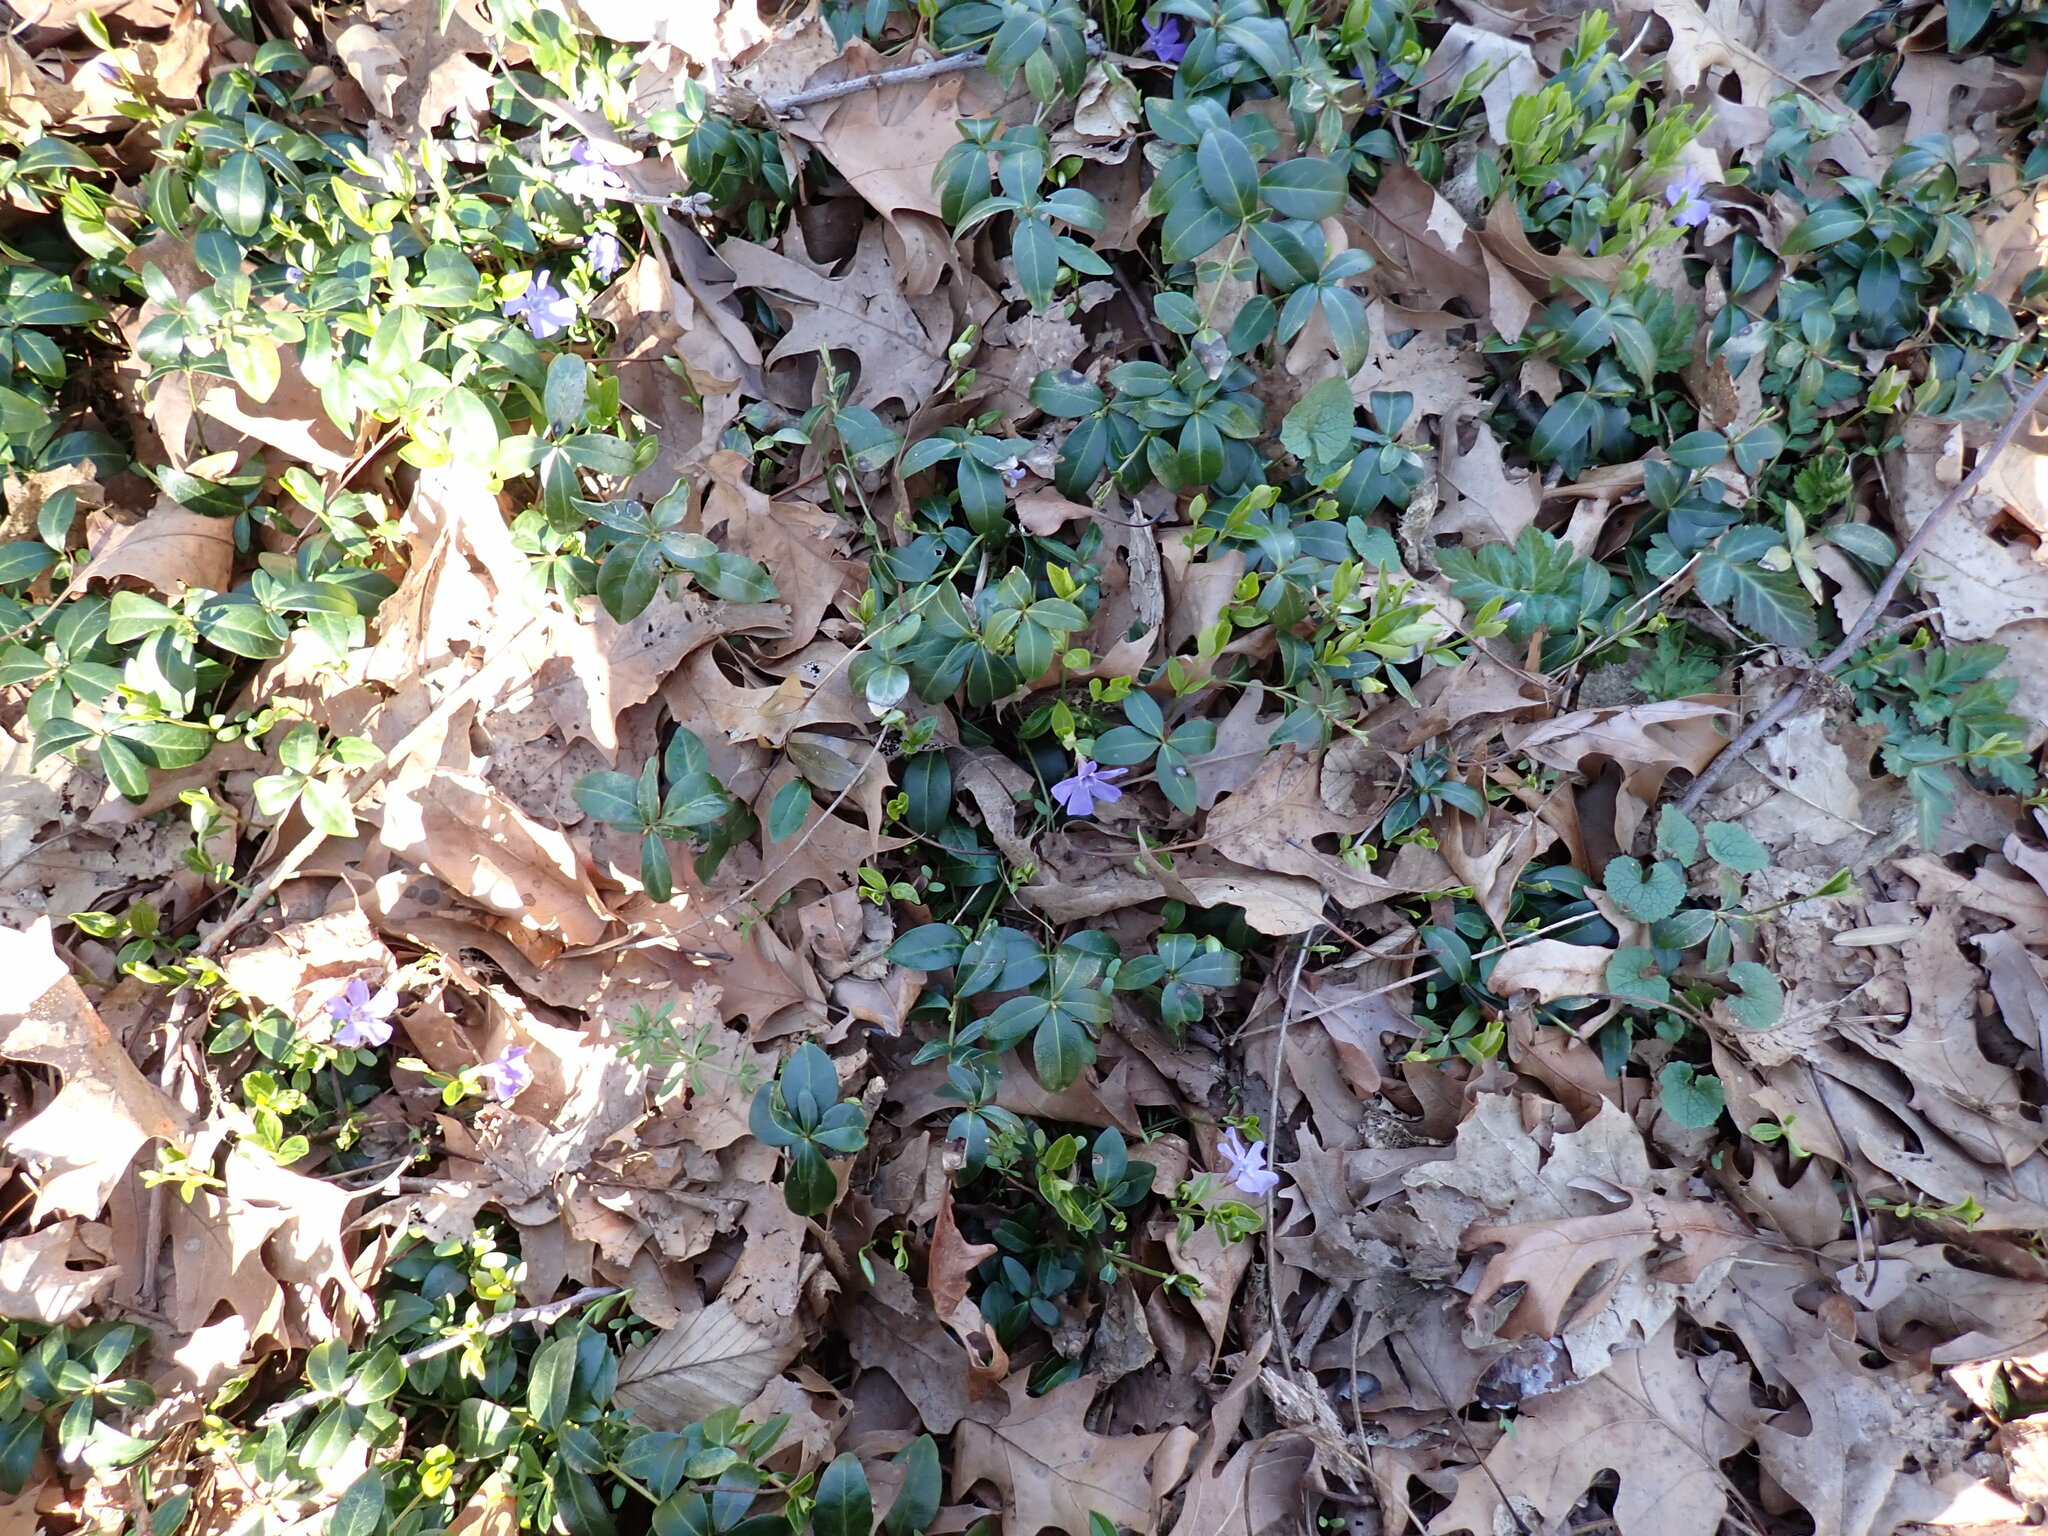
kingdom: Plantae
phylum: Tracheophyta
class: Magnoliopsida
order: Gentianales
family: Apocynaceae
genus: Vinca
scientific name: Vinca minor
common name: Lesser periwinkle
